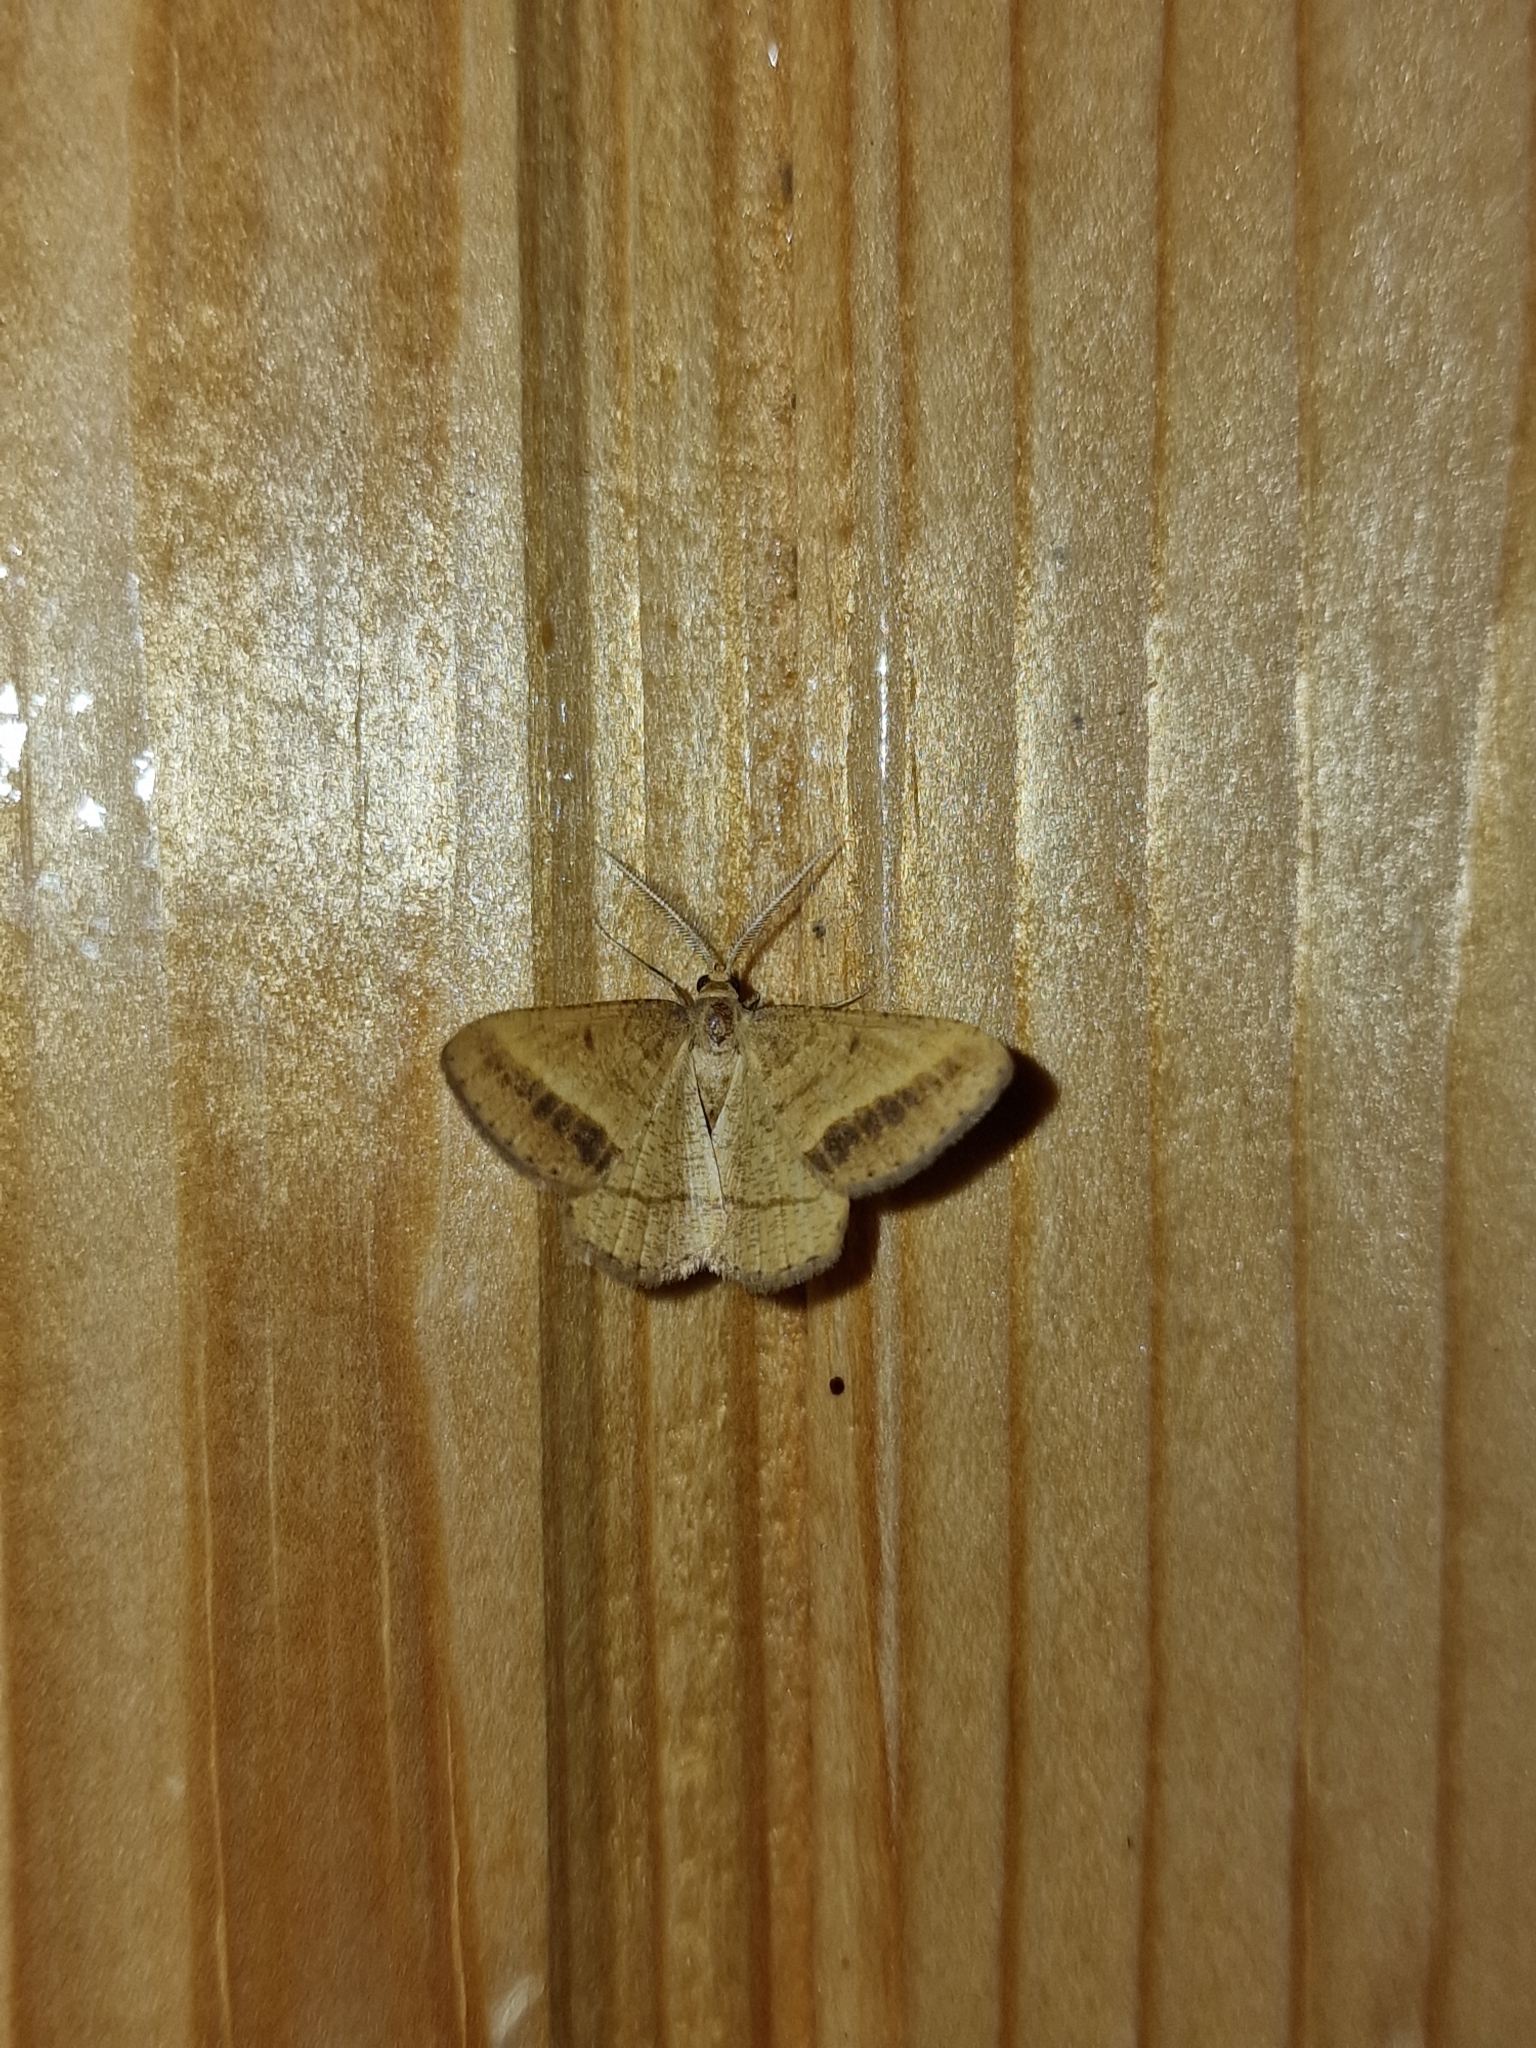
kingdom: Animalia
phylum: Arthropoda
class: Insecta
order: Lepidoptera
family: Geometridae
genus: Tephrina
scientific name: Tephrina arenacearia
